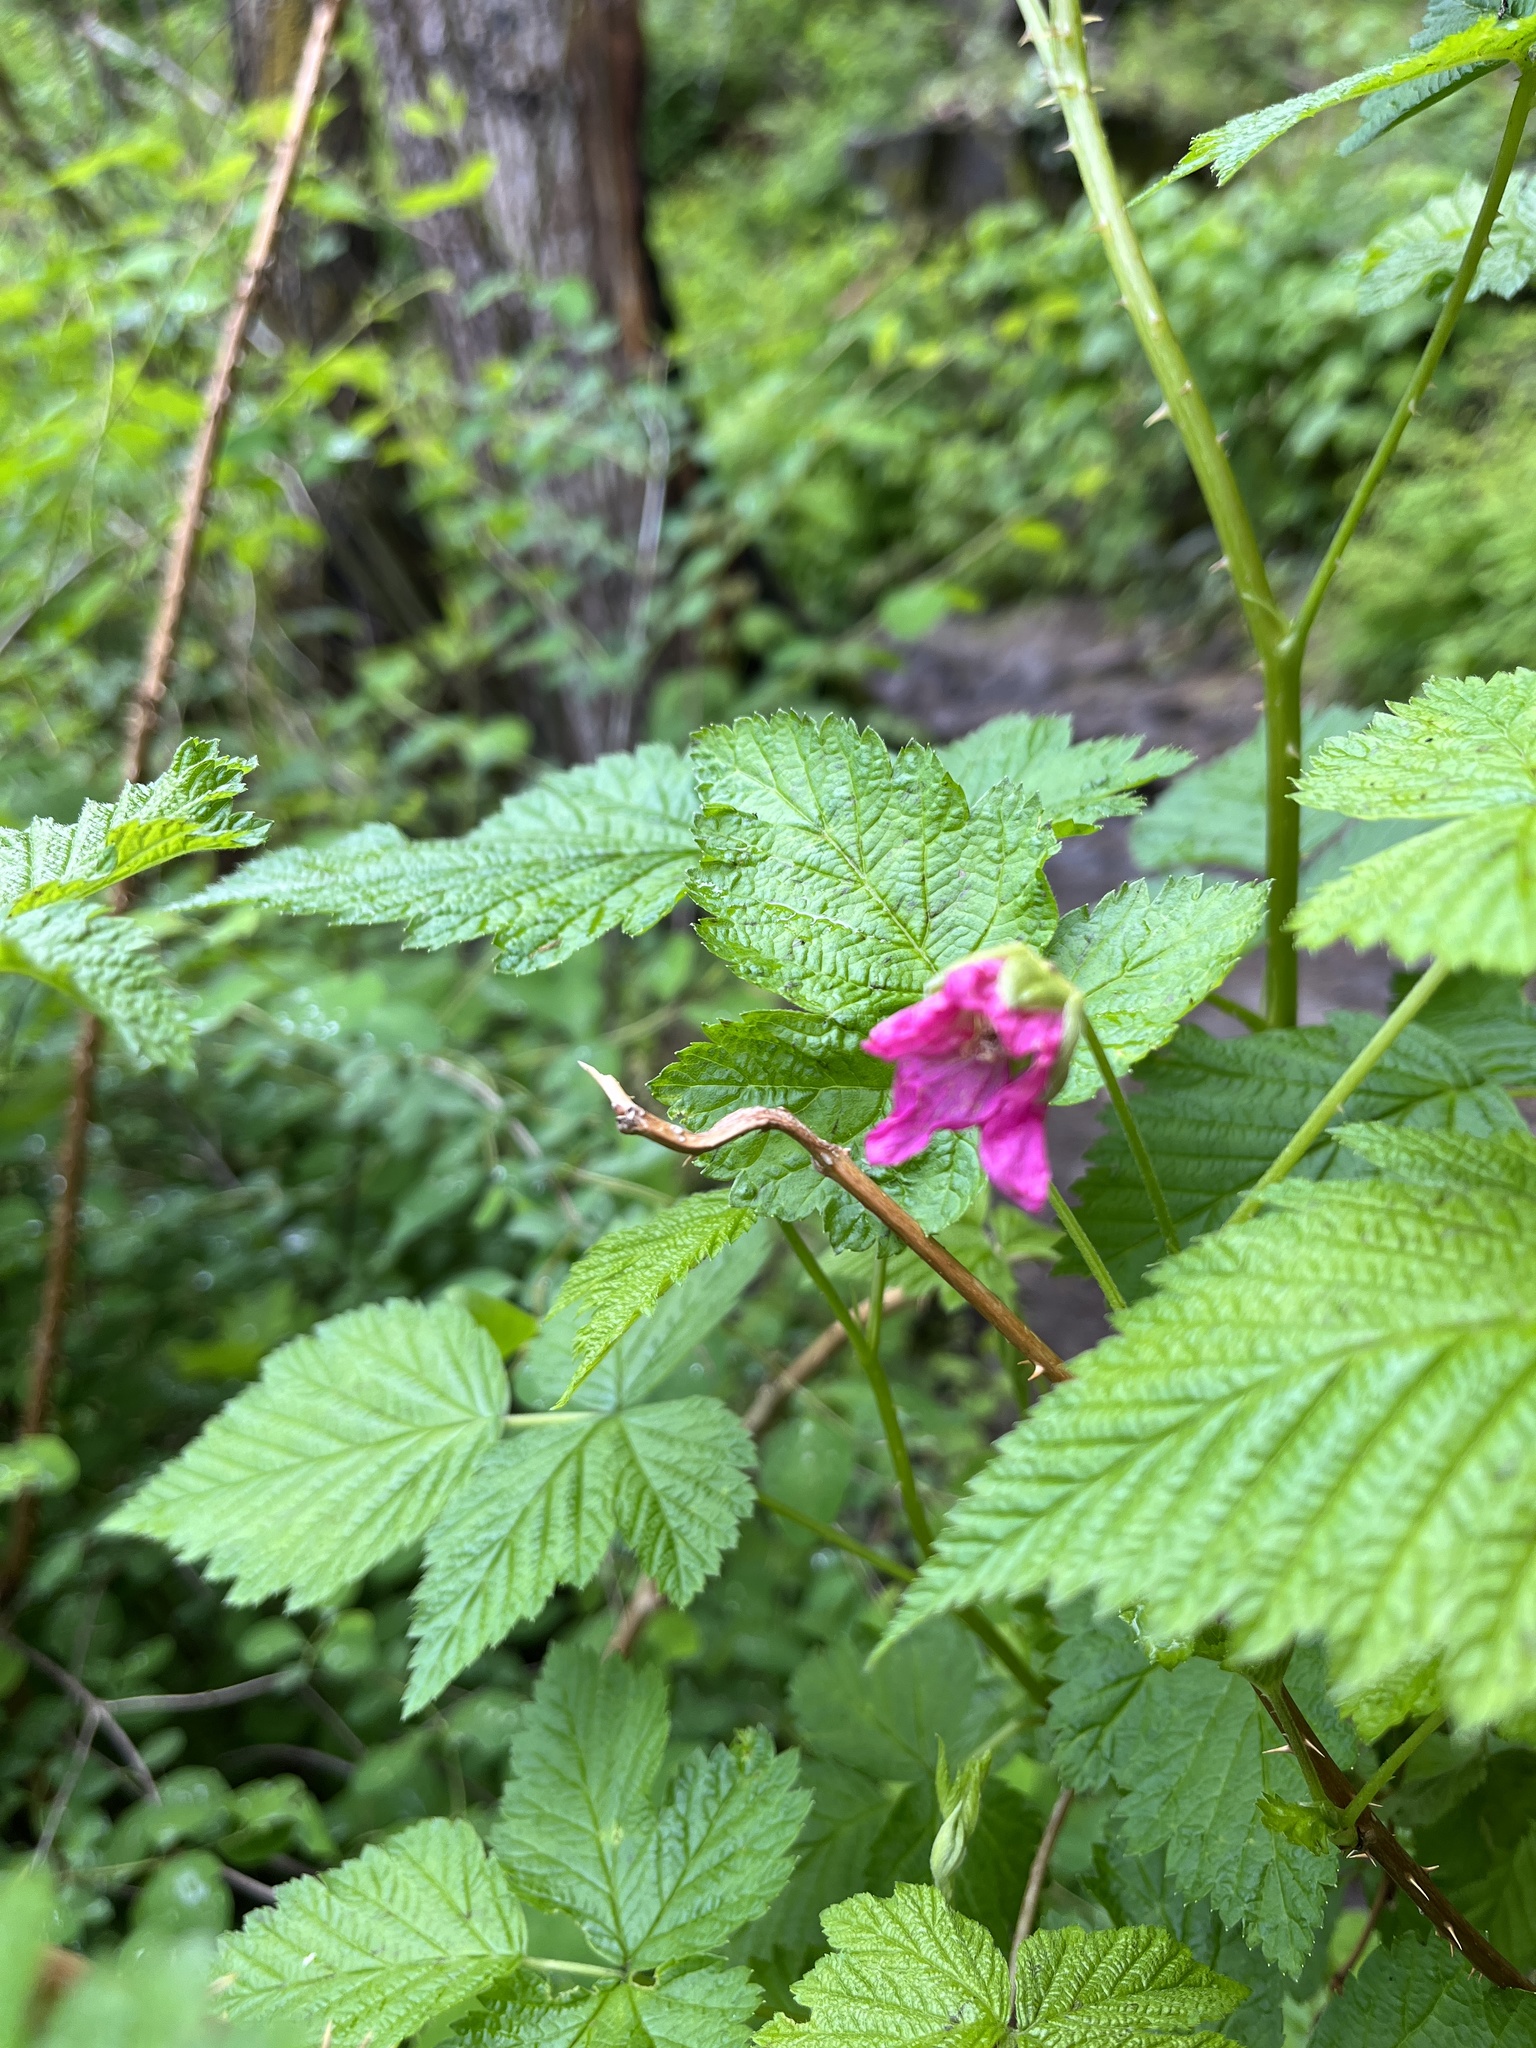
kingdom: Plantae
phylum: Tracheophyta
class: Magnoliopsida
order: Rosales
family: Rosaceae
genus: Rubus
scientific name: Rubus spectabilis
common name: Salmonberry
